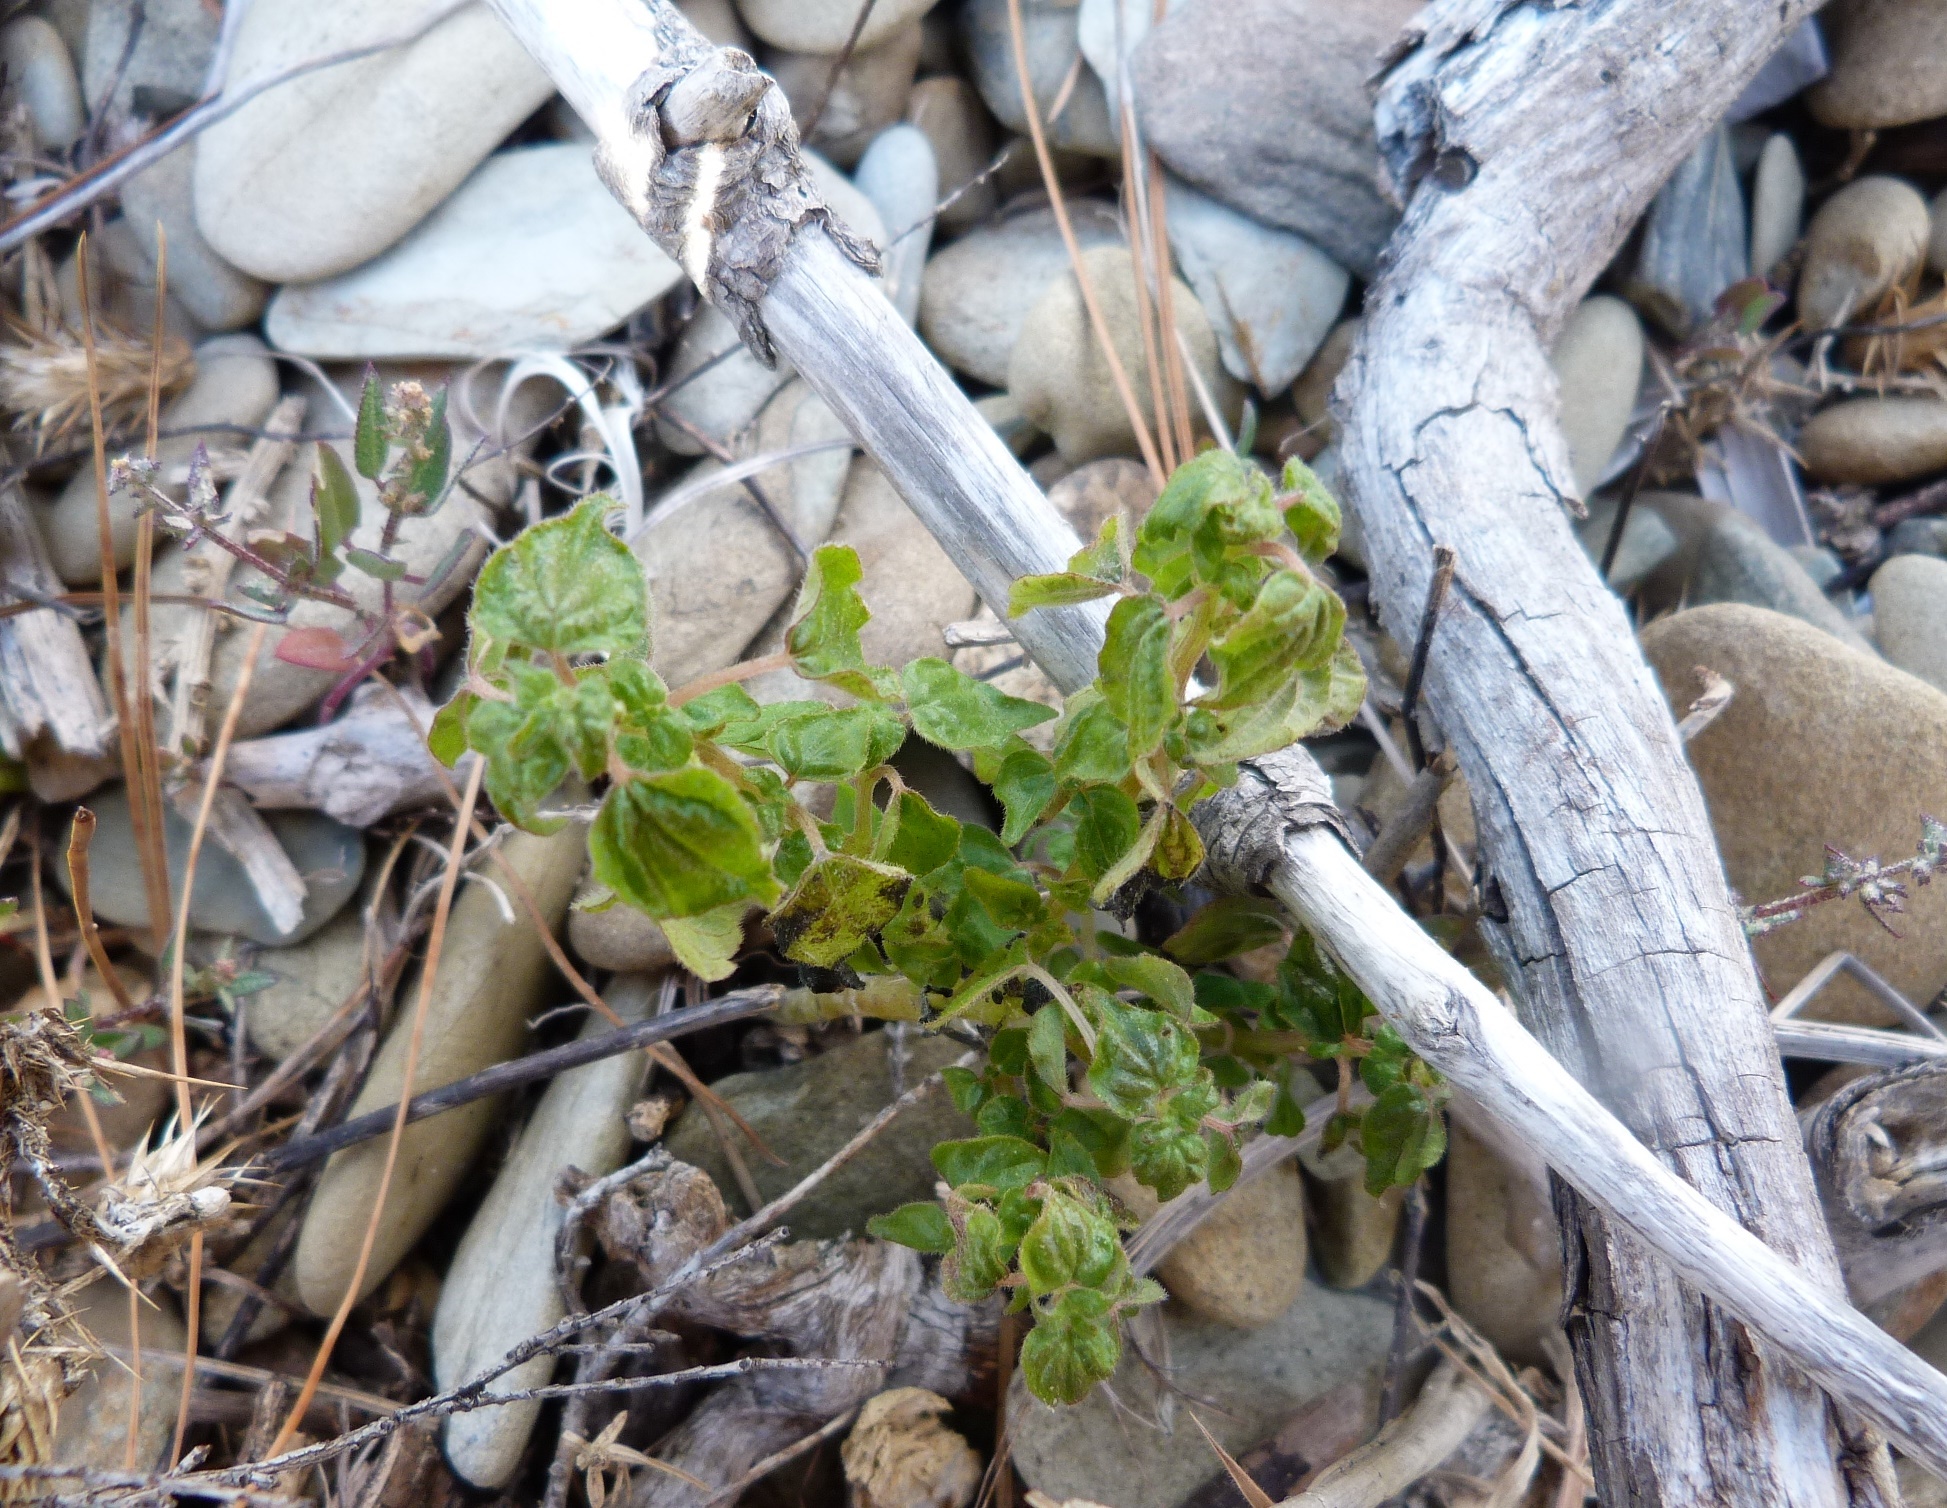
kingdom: Plantae
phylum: Tracheophyta
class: Magnoliopsida
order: Rosales
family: Urticaceae
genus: Parietaria
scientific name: Parietaria debilis
